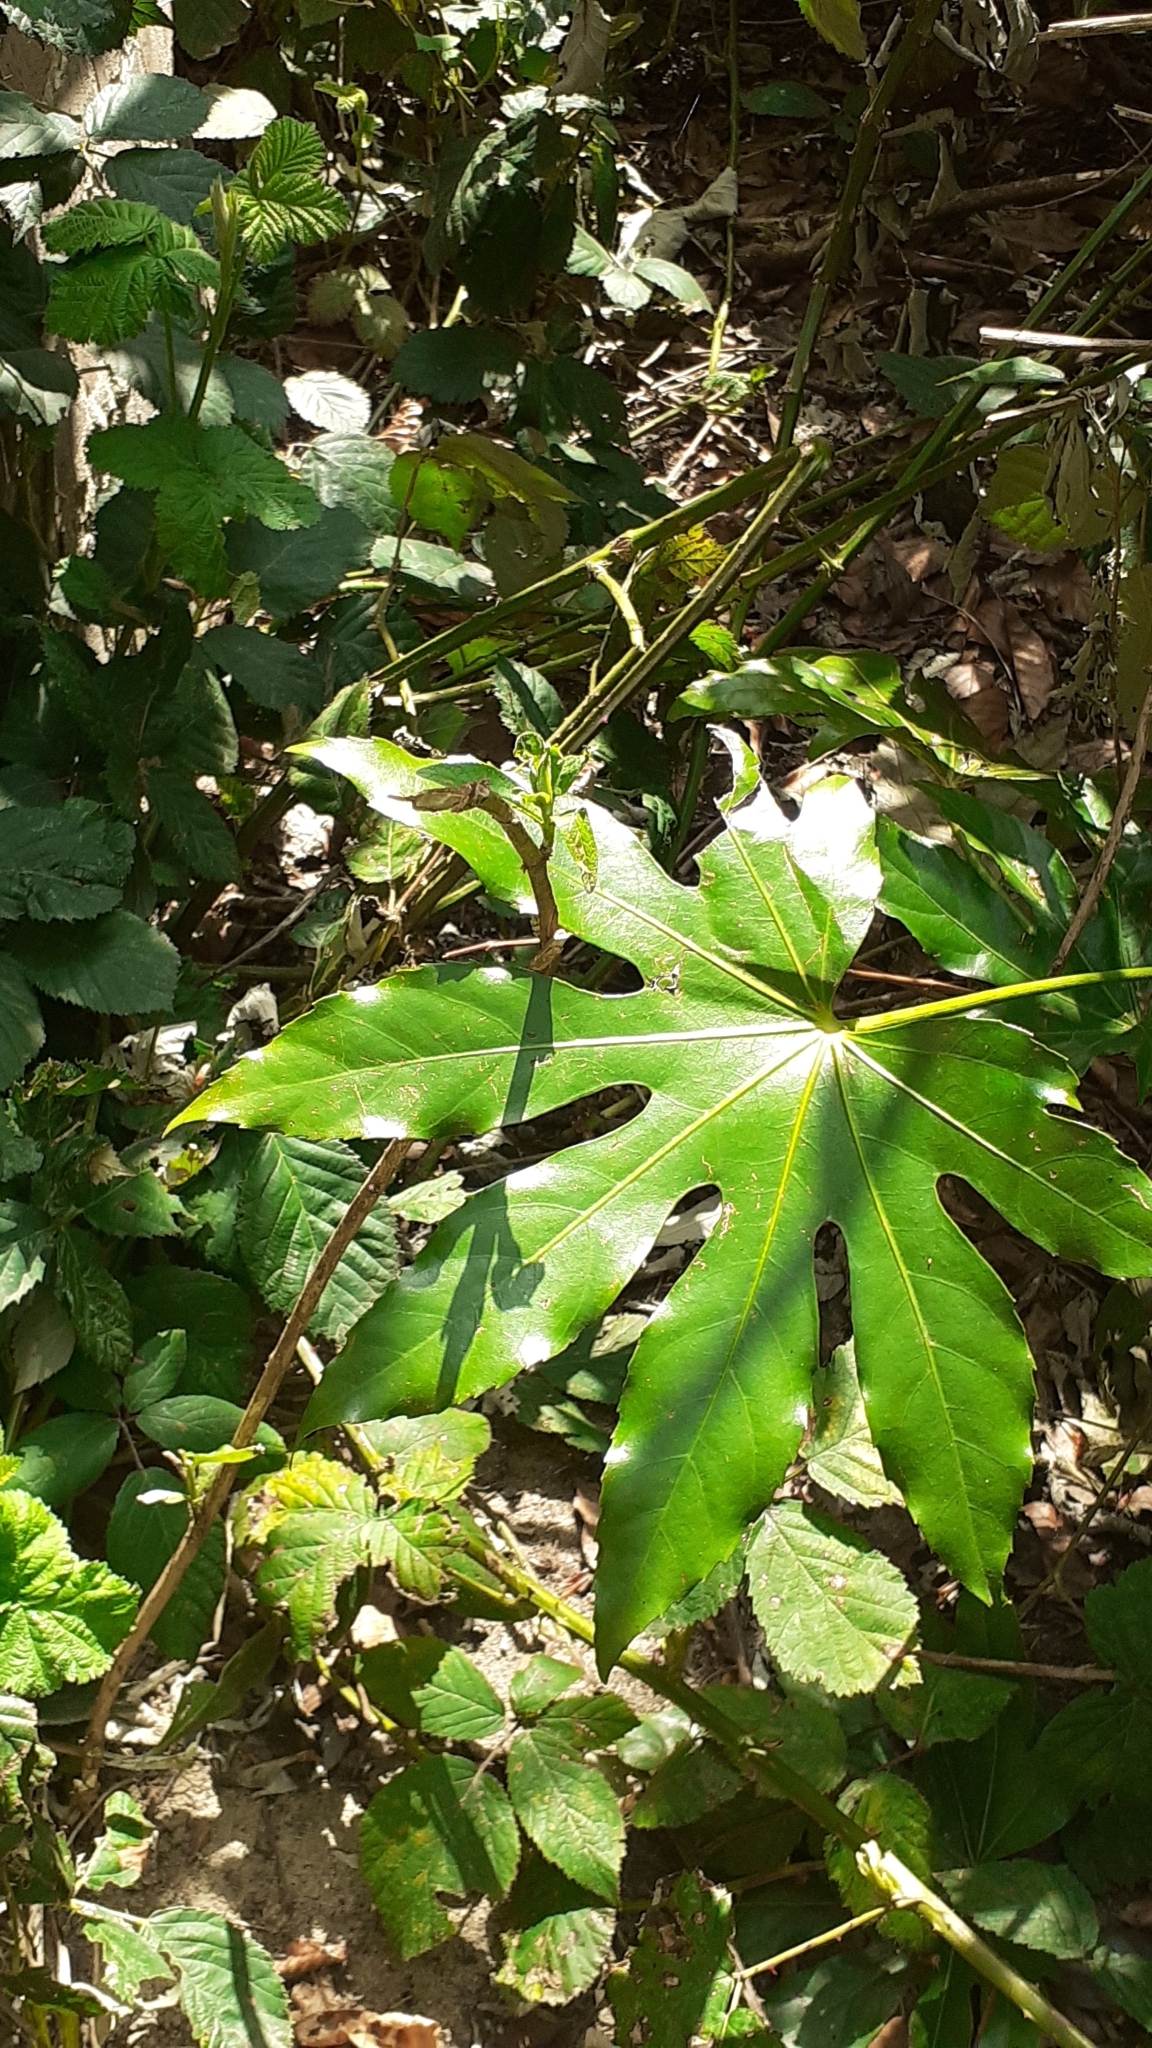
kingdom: Plantae
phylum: Tracheophyta
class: Magnoliopsida
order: Apiales
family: Araliaceae
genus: Fatsia
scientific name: Fatsia japonica
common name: Fatsia
